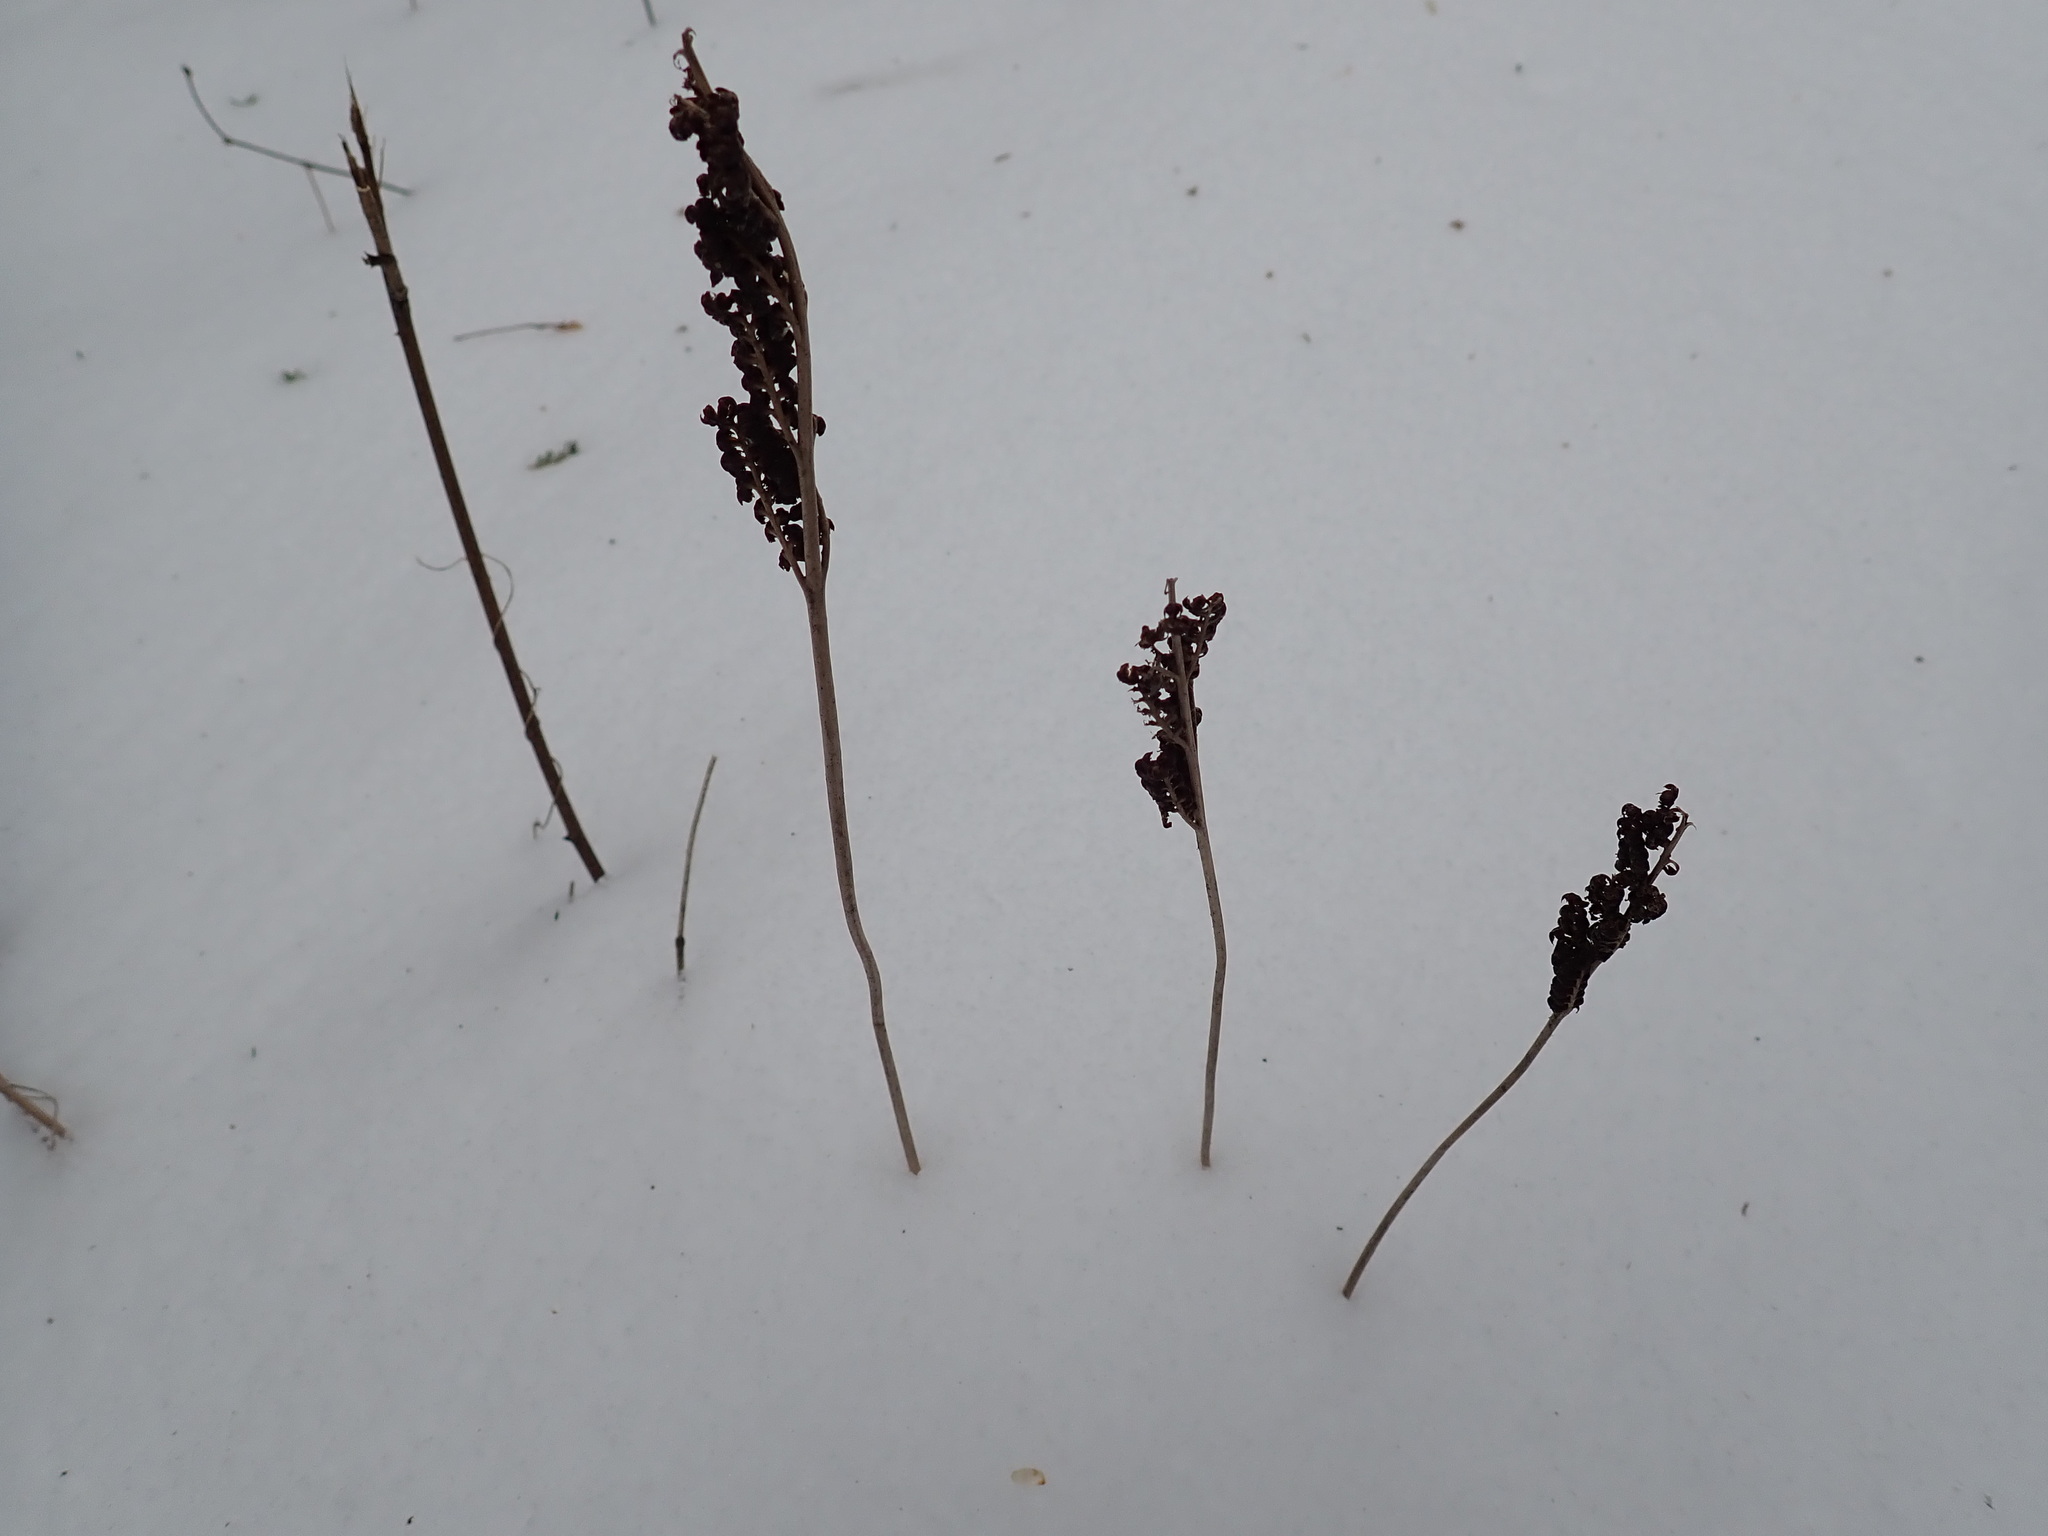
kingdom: Plantae
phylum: Tracheophyta
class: Polypodiopsida
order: Polypodiales
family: Onocleaceae
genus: Onoclea
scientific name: Onoclea sensibilis
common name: Sensitive fern
